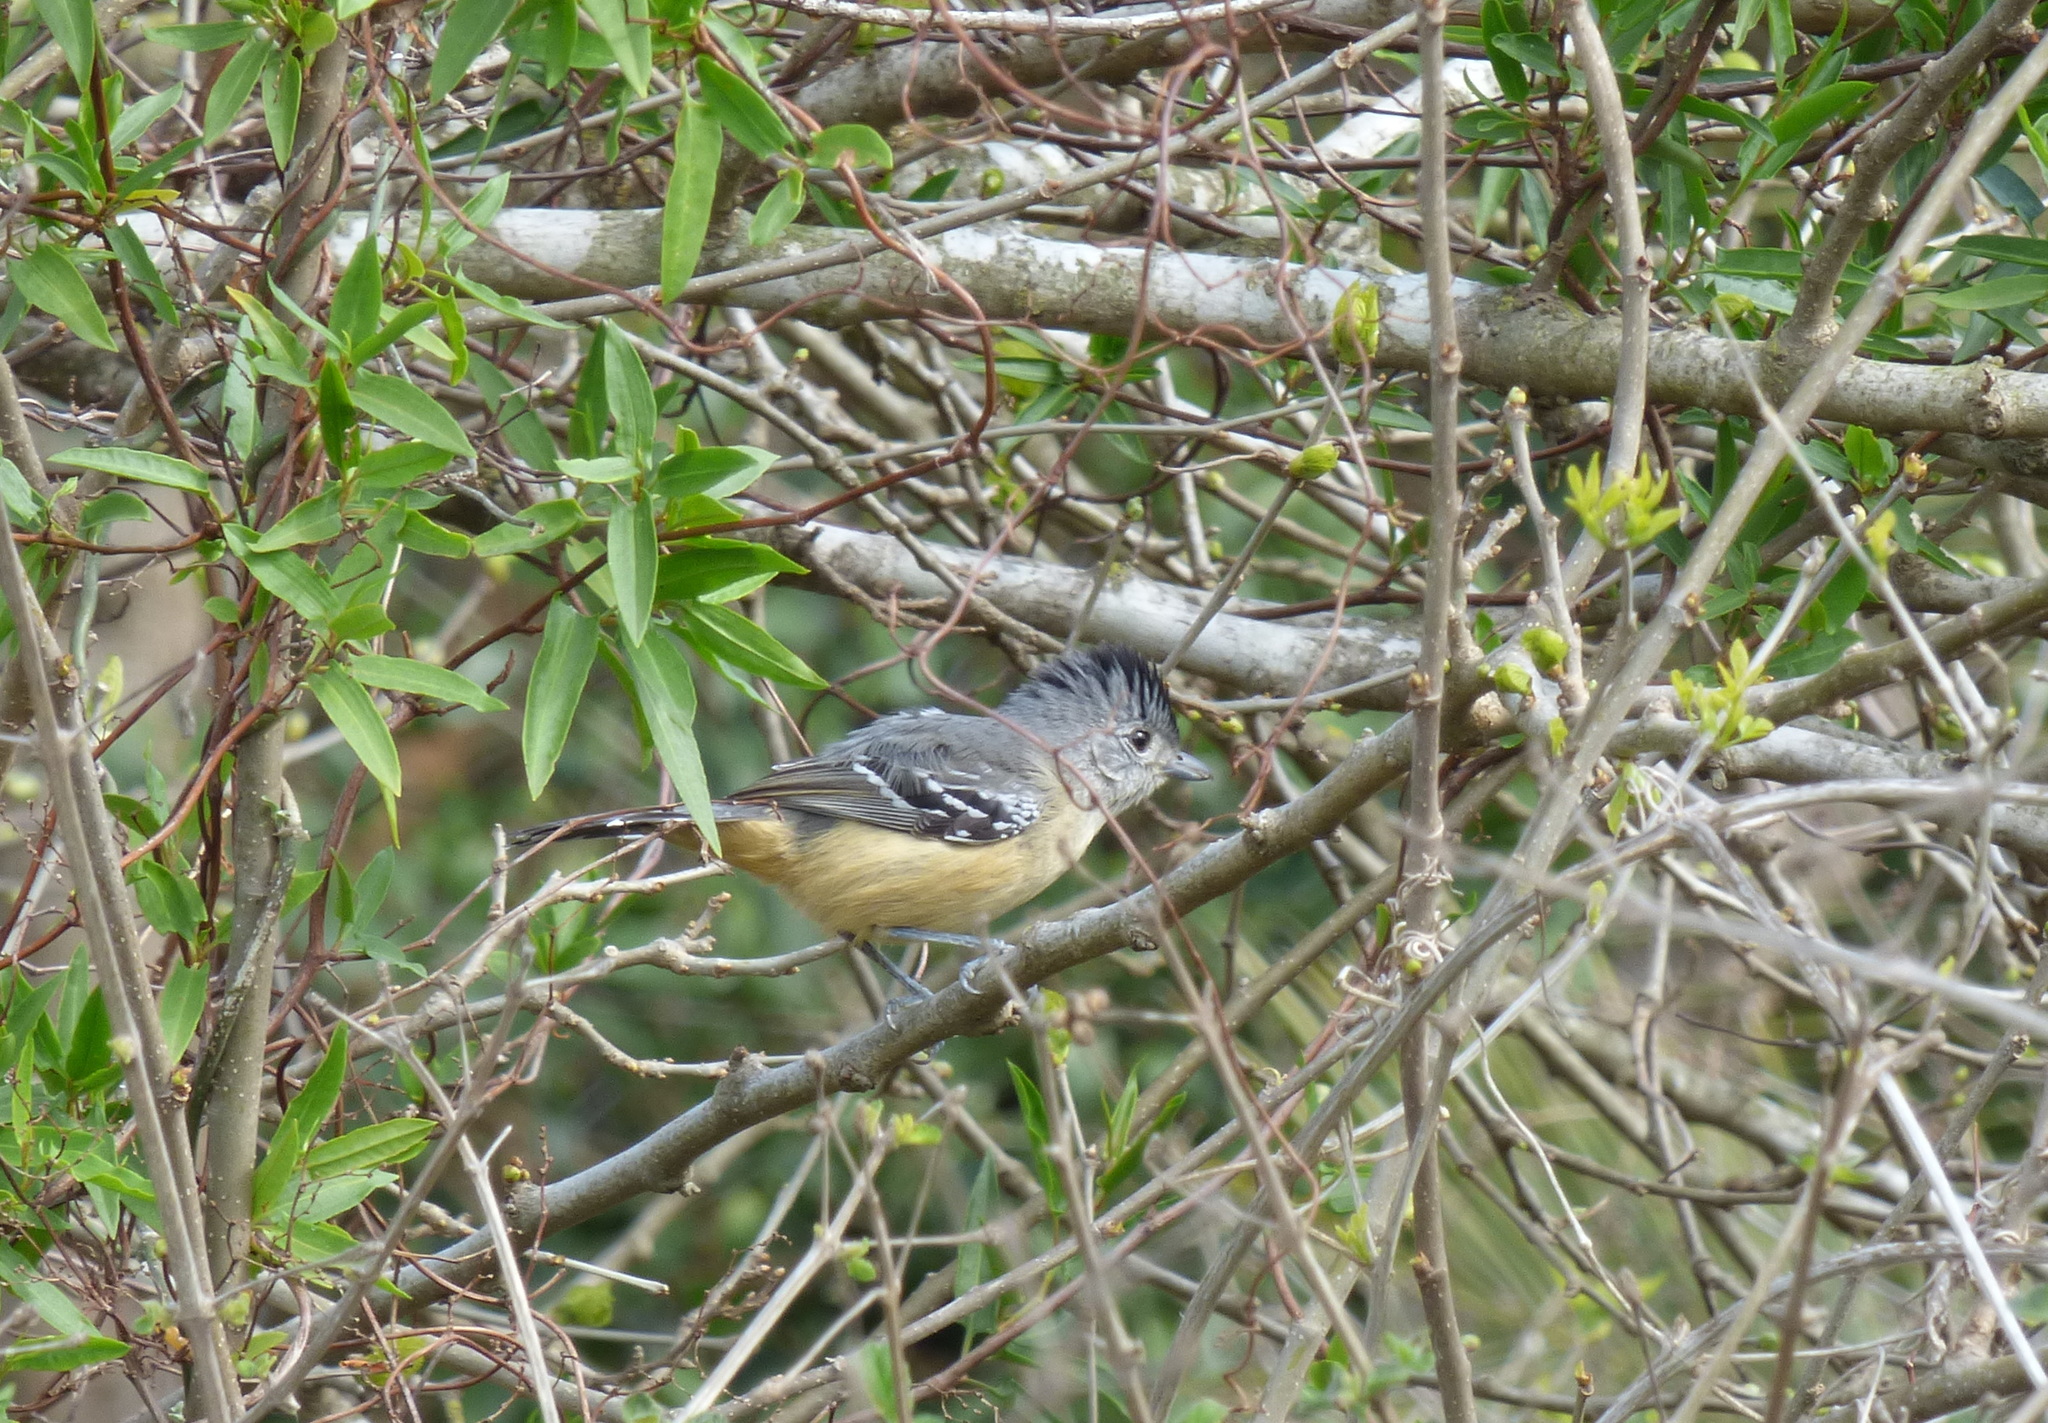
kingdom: Animalia
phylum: Chordata
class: Aves
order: Passeriformes
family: Thamnophilidae
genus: Thamnophilus
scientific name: Thamnophilus caerulescens
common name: Variable antshrike
